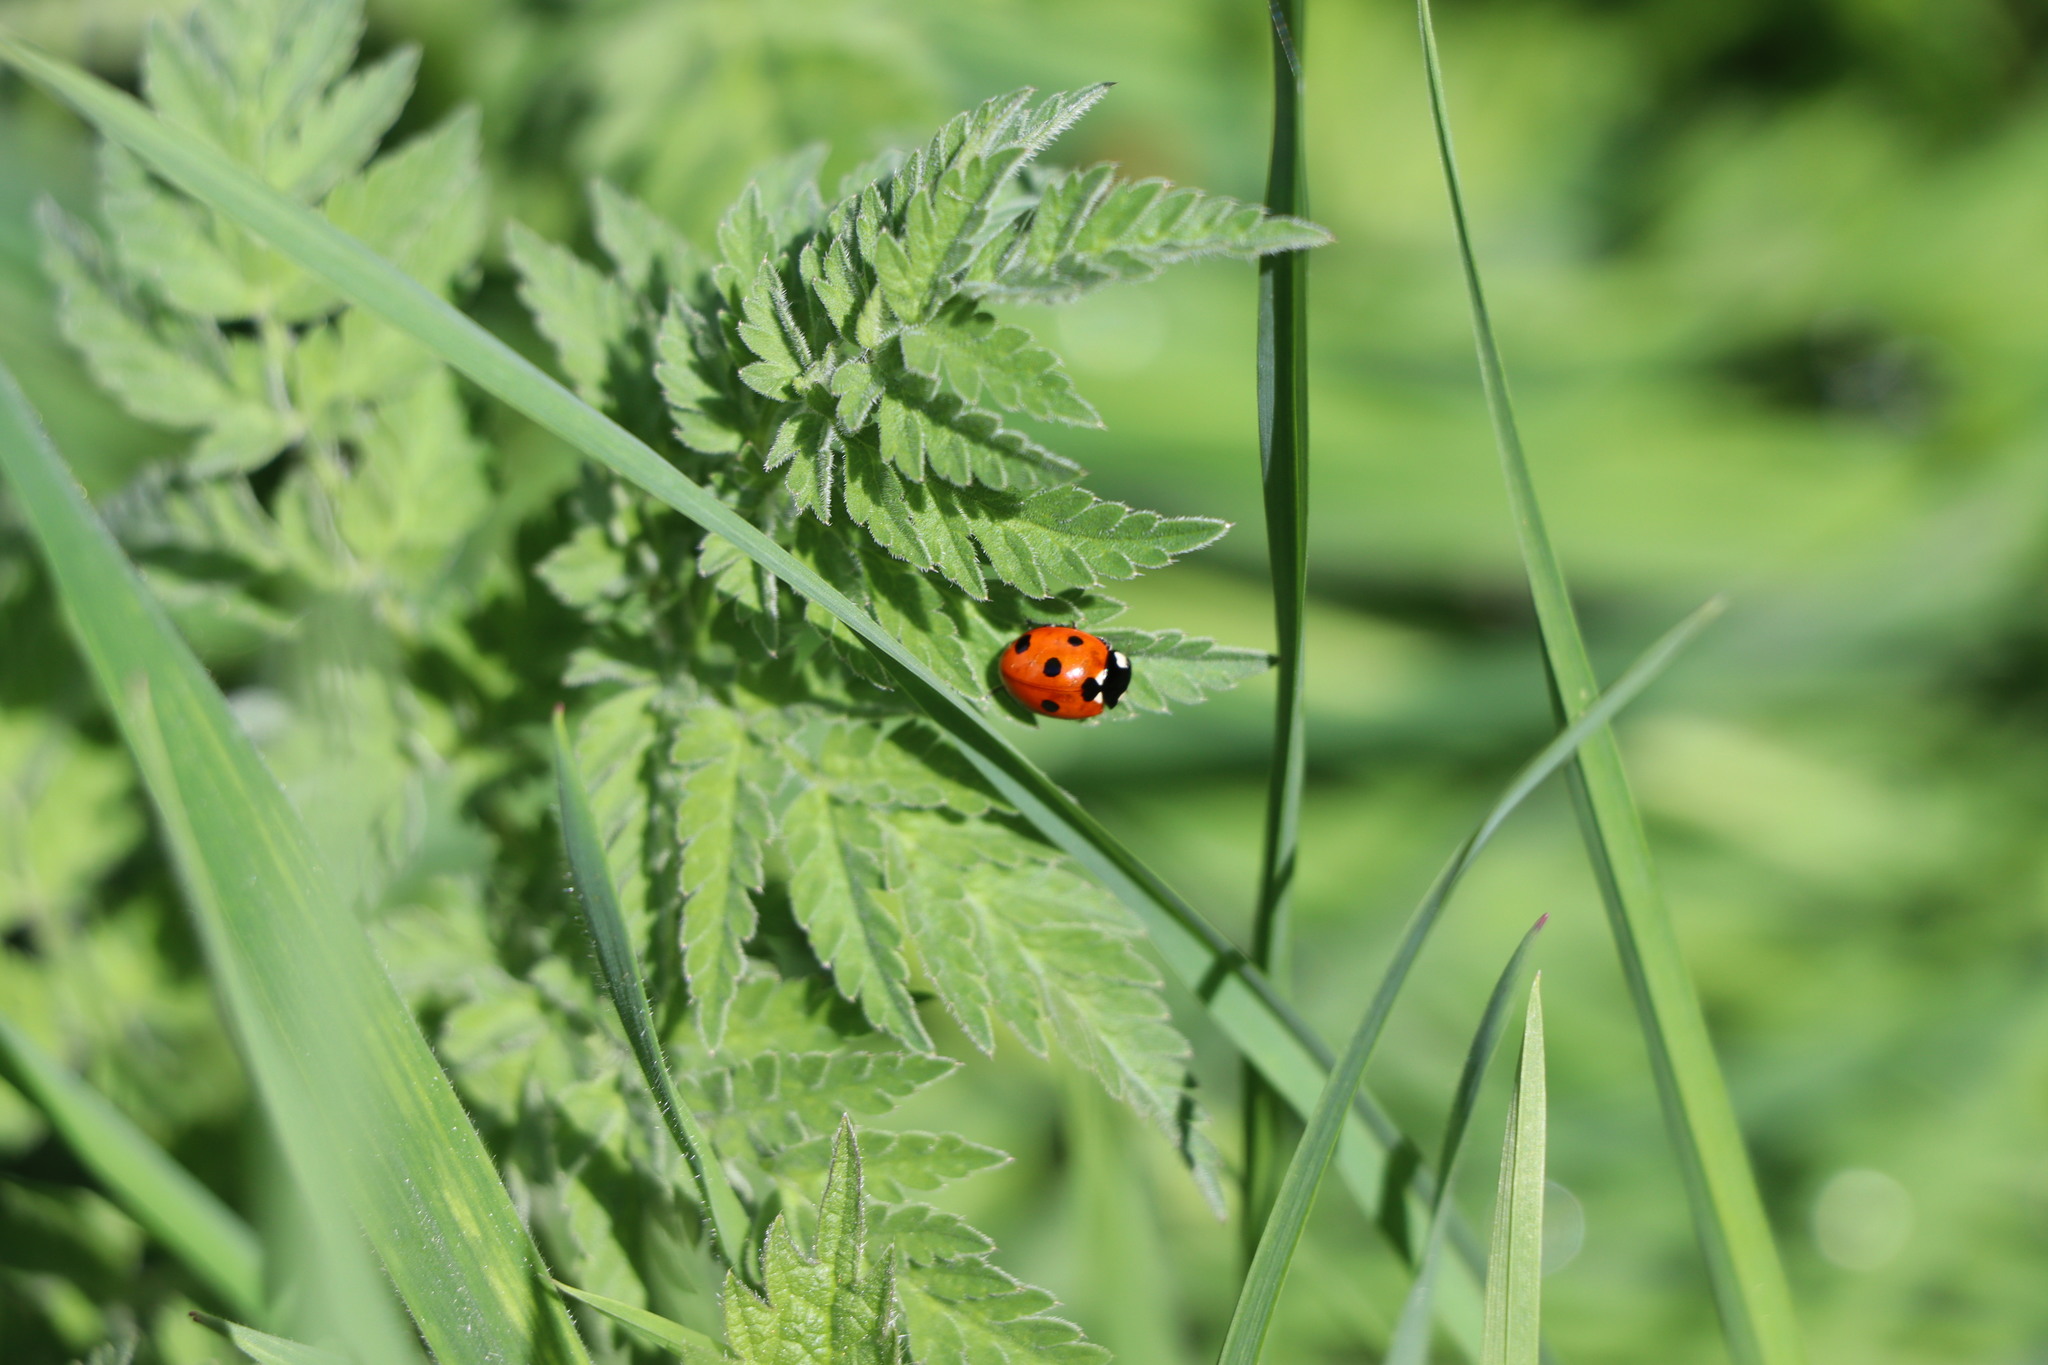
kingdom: Animalia
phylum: Arthropoda
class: Insecta
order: Coleoptera
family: Coccinellidae
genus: Coccinella
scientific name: Coccinella septempunctata
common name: Sevenspotted lady beetle
